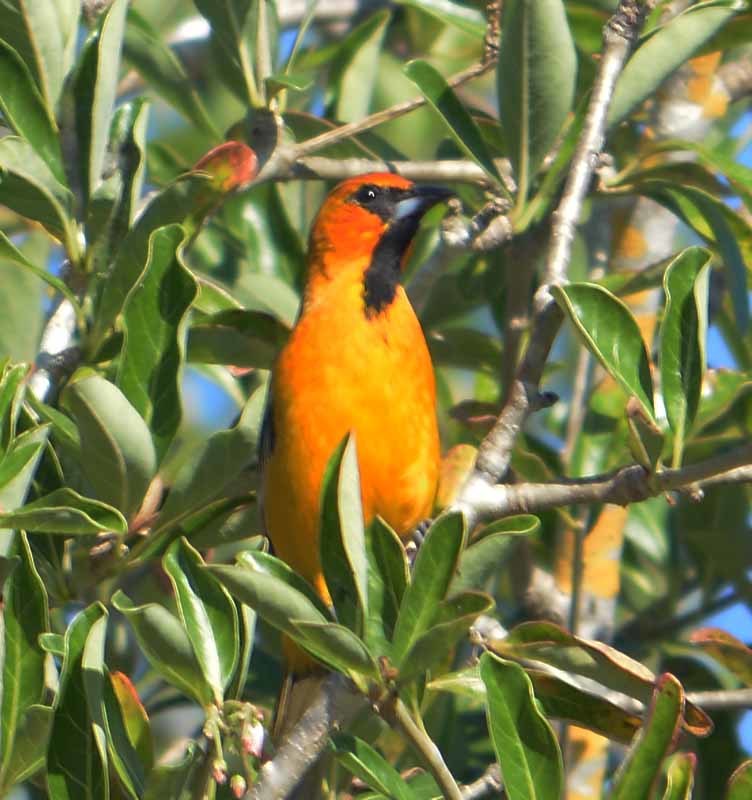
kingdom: Animalia
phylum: Chordata
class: Aves
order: Passeriformes
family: Icteridae
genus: Icterus
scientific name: Icterus pustulatus
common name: Streak-backed oriole
